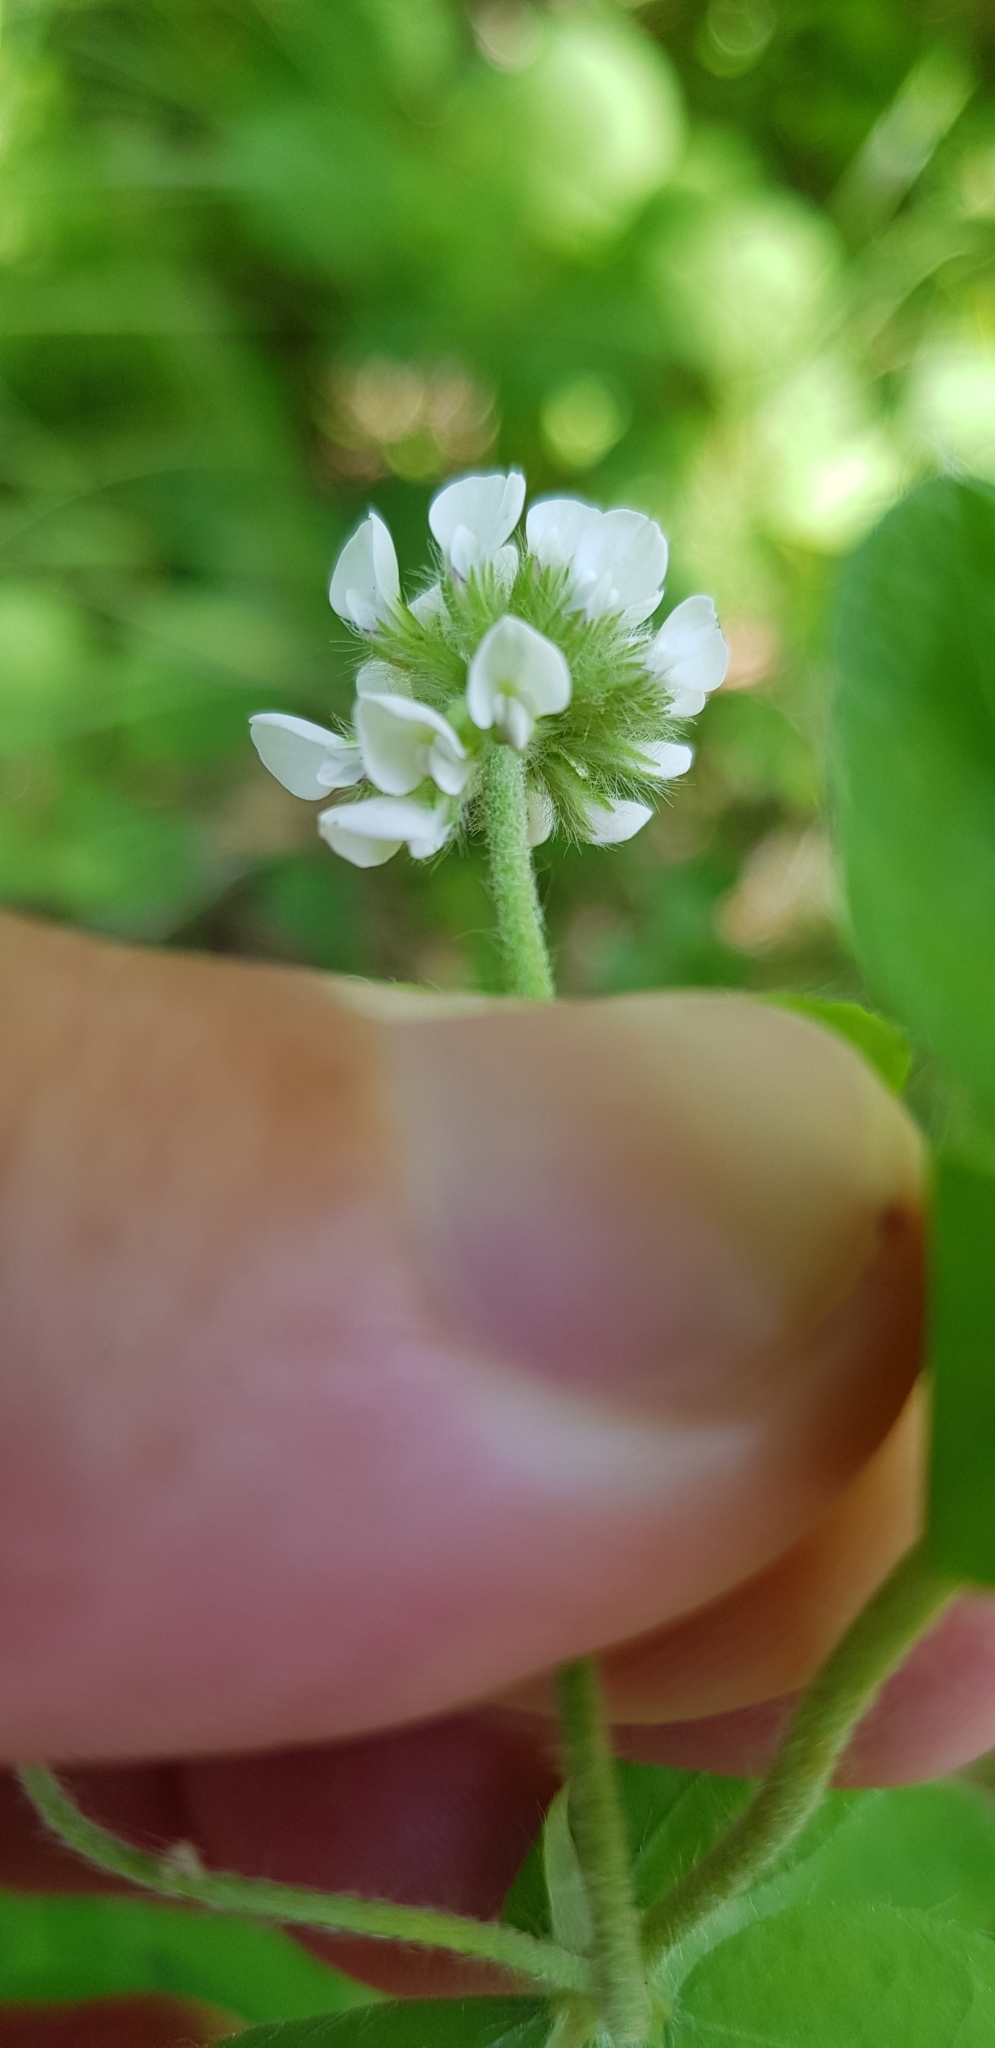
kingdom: Plantae
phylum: Tracheophyta
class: Magnoliopsida
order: Fabales
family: Fabaceae
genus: Lotus
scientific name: Lotus herbaceus
